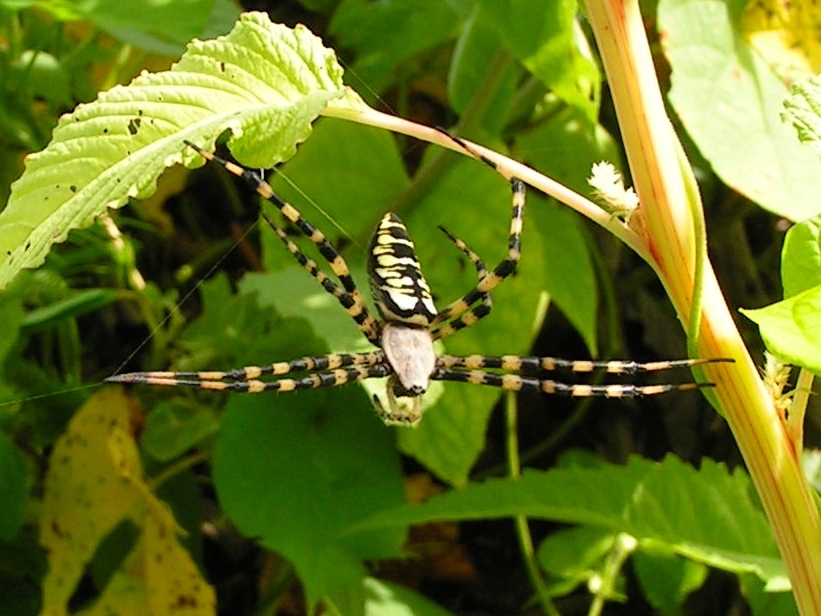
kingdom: Animalia
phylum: Arthropoda
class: Arachnida
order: Araneae
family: Araneidae
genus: Argiope
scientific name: Argiope aurantia
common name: Orb weavers
